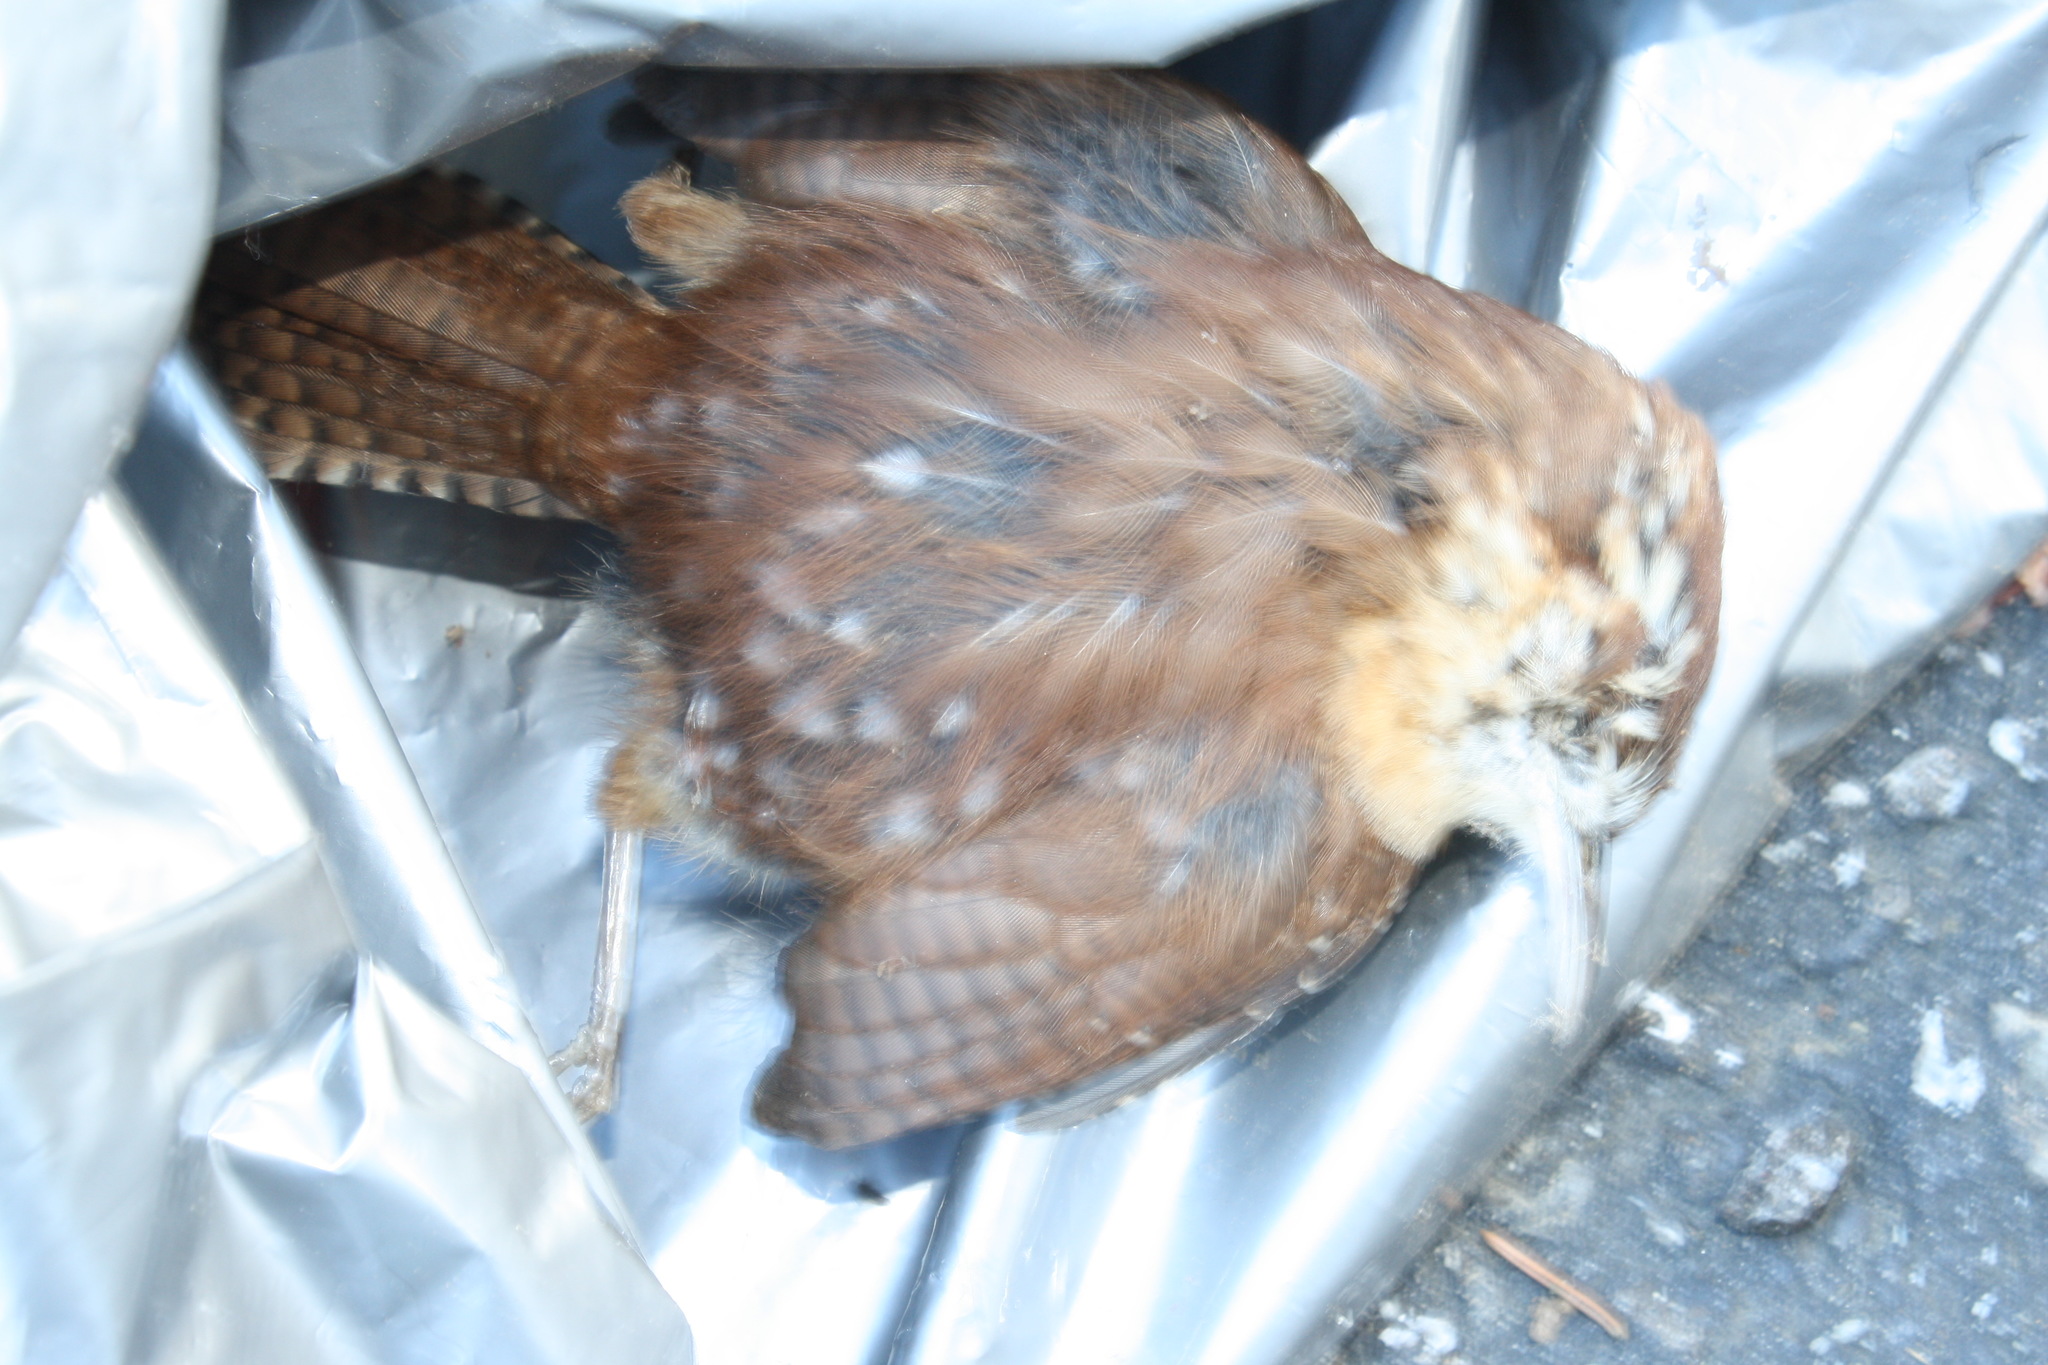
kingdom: Animalia
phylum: Chordata
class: Aves
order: Passeriformes
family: Troglodytidae
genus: Thryothorus
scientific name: Thryothorus ludovicianus
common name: Carolina wren
